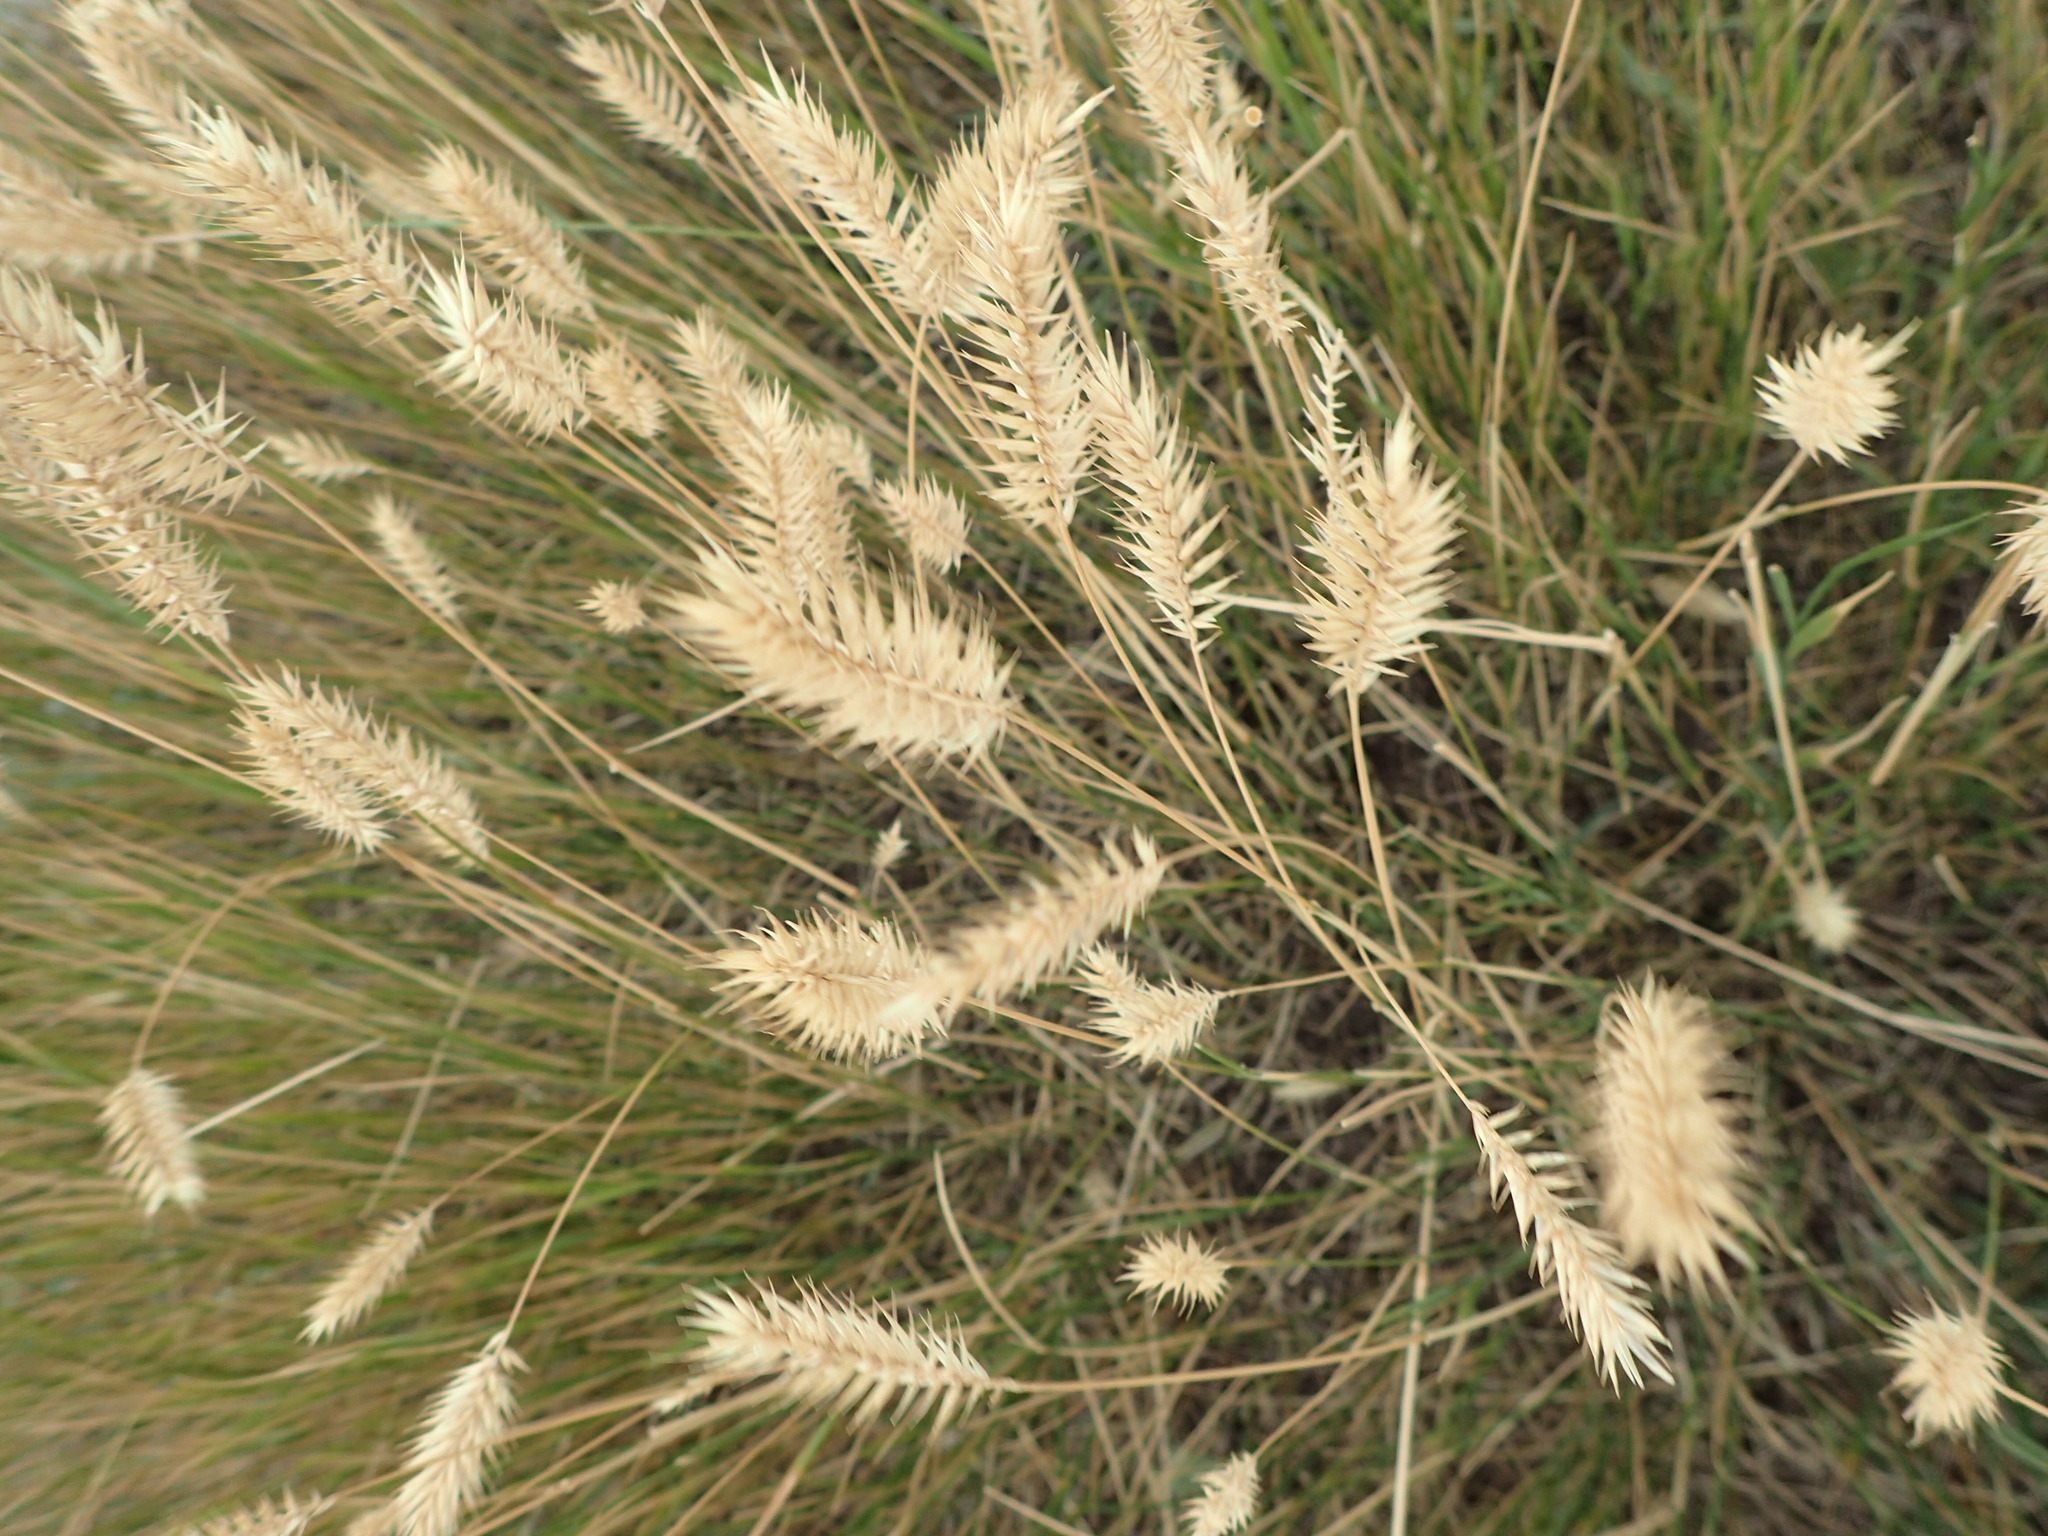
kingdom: Plantae
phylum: Tracheophyta
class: Liliopsida
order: Poales
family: Poaceae
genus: Agropyron
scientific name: Agropyron cristatum
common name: Crested wheatgrass
